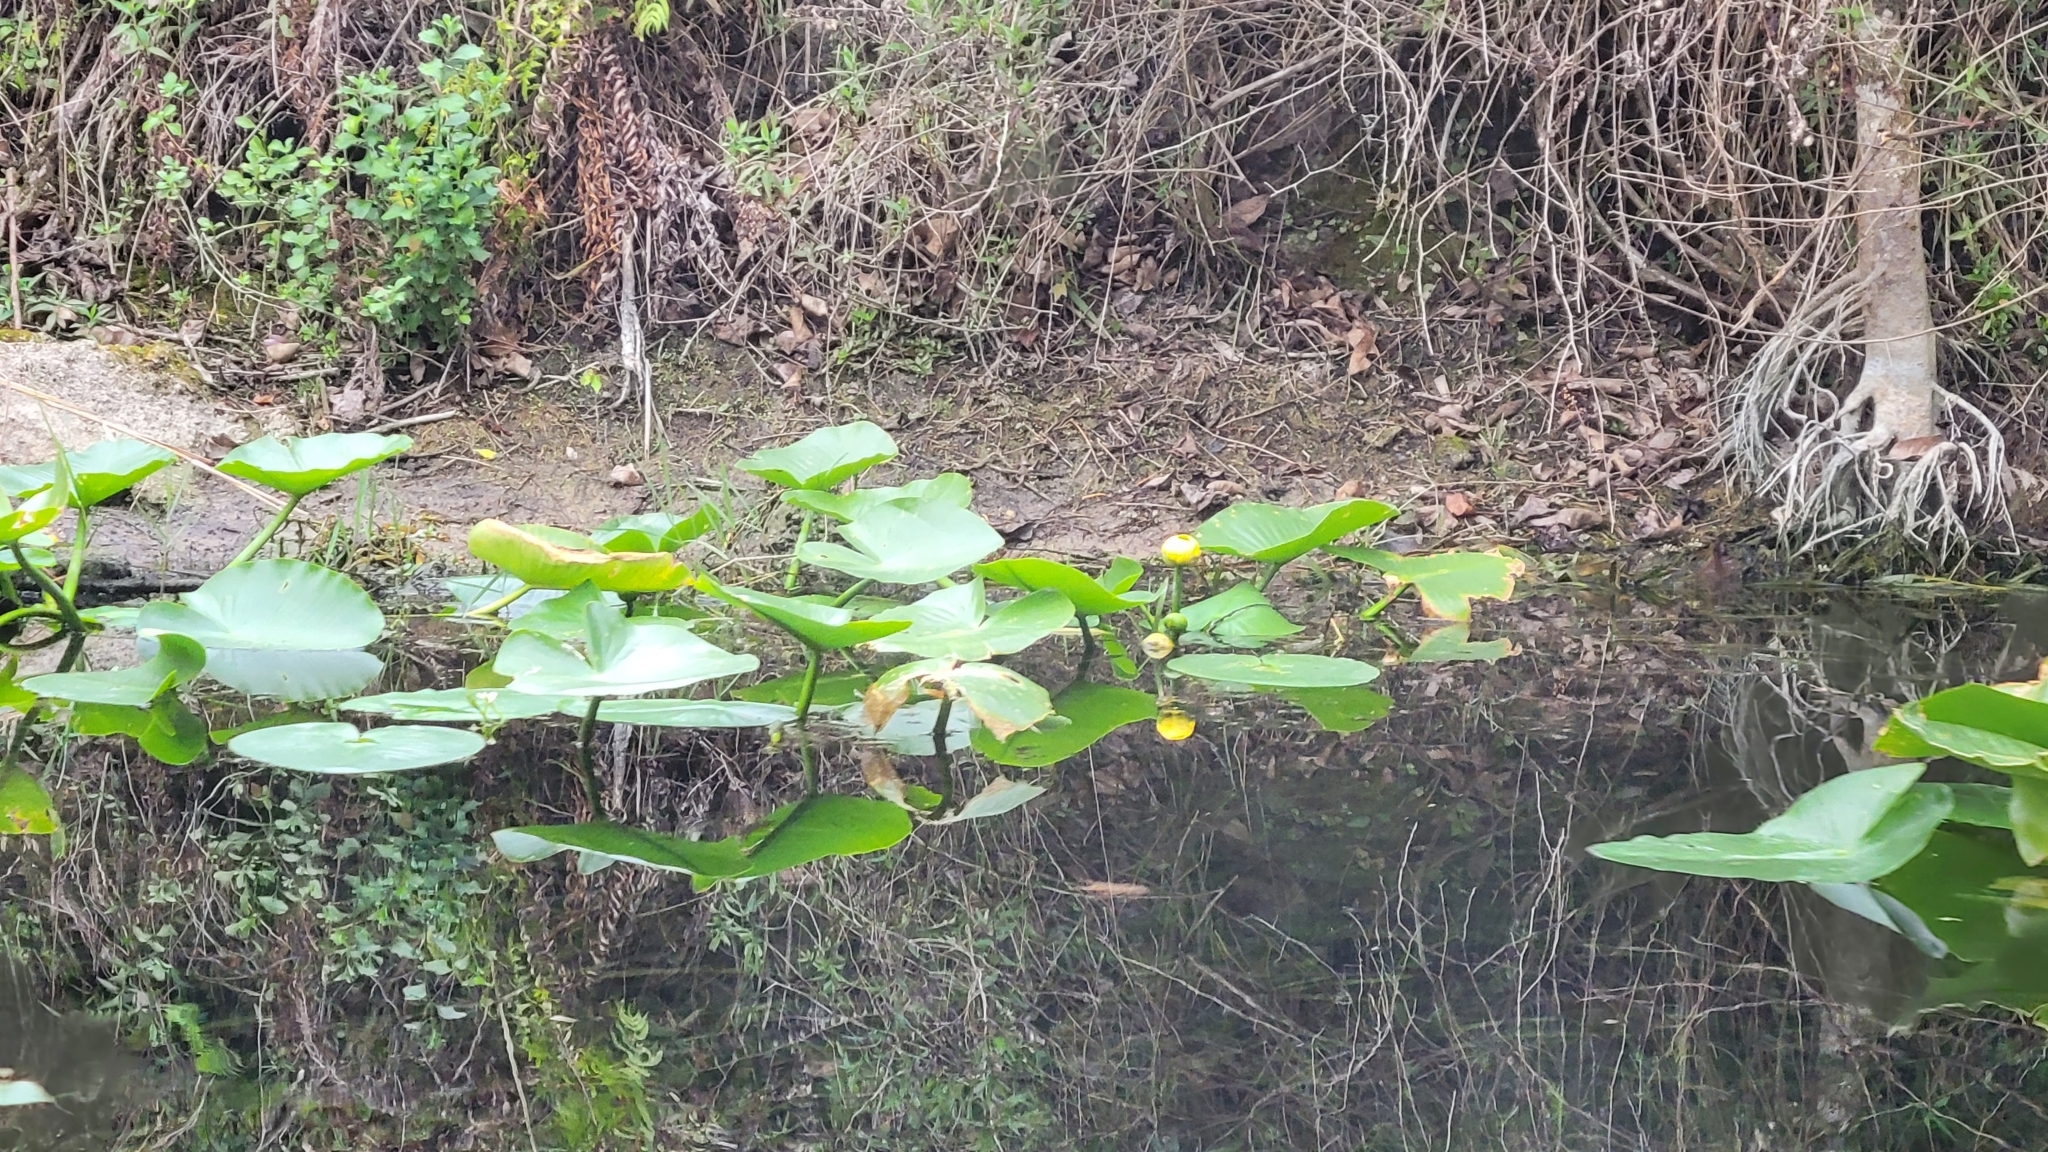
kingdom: Plantae
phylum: Tracheophyta
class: Magnoliopsida
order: Nymphaeales
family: Nymphaeaceae
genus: Nuphar
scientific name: Nuphar advena
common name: Spatter-dock
